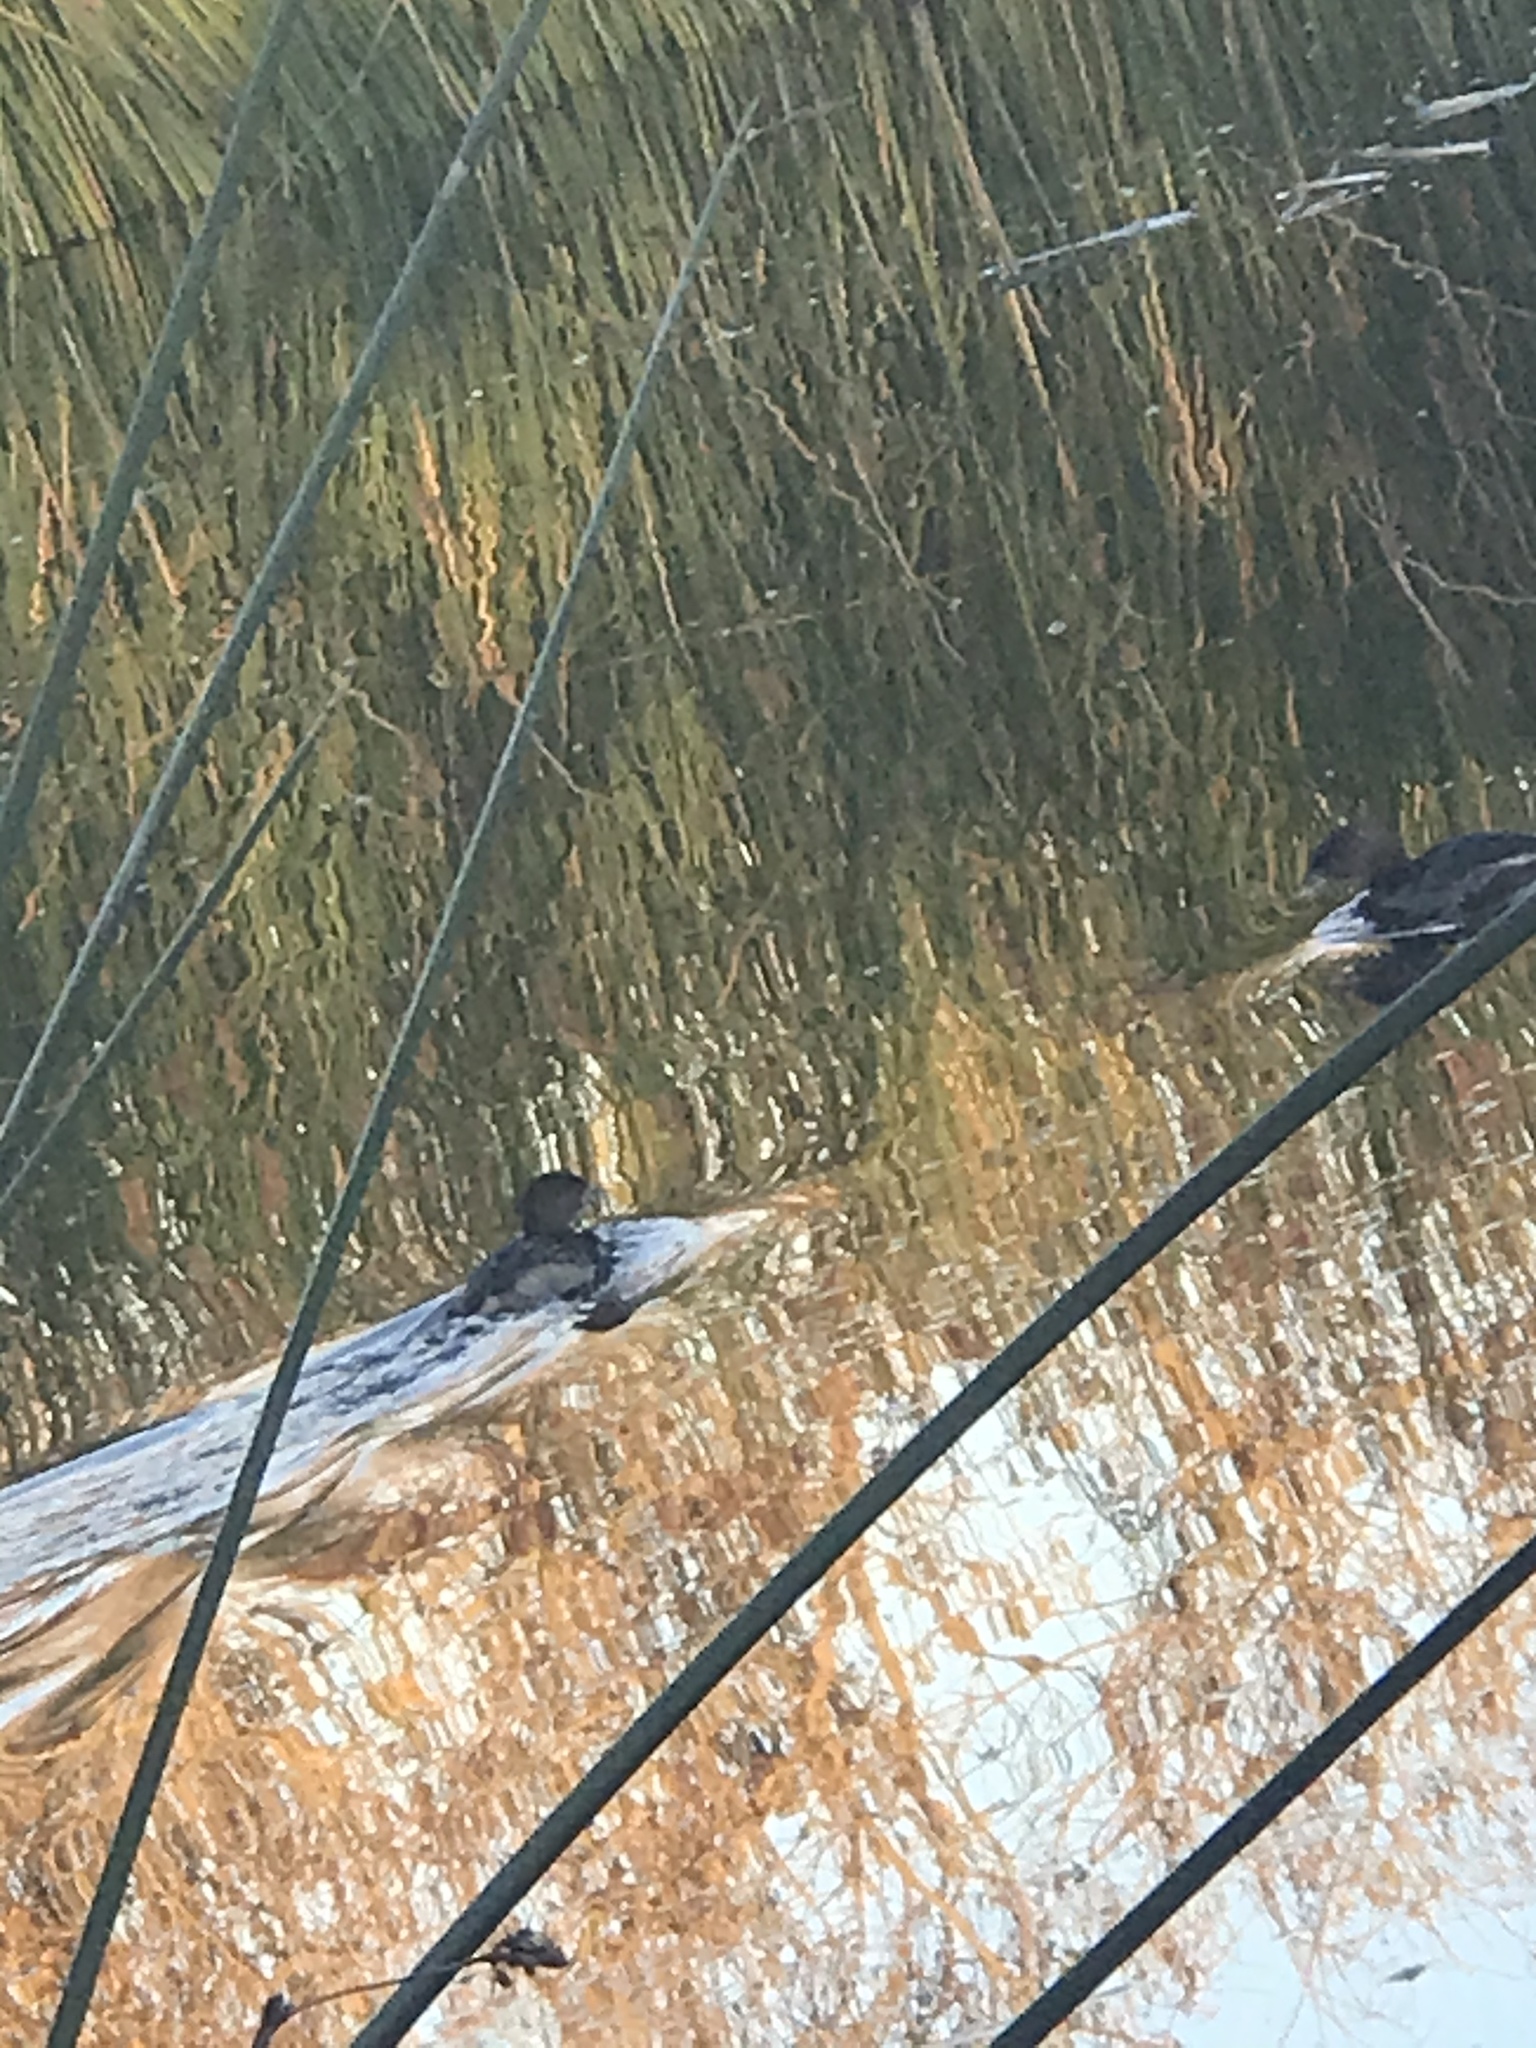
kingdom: Animalia
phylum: Chordata
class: Aves
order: Podicipediformes
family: Podicipedidae
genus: Podilymbus
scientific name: Podilymbus podiceps
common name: Pied-billed grebe
